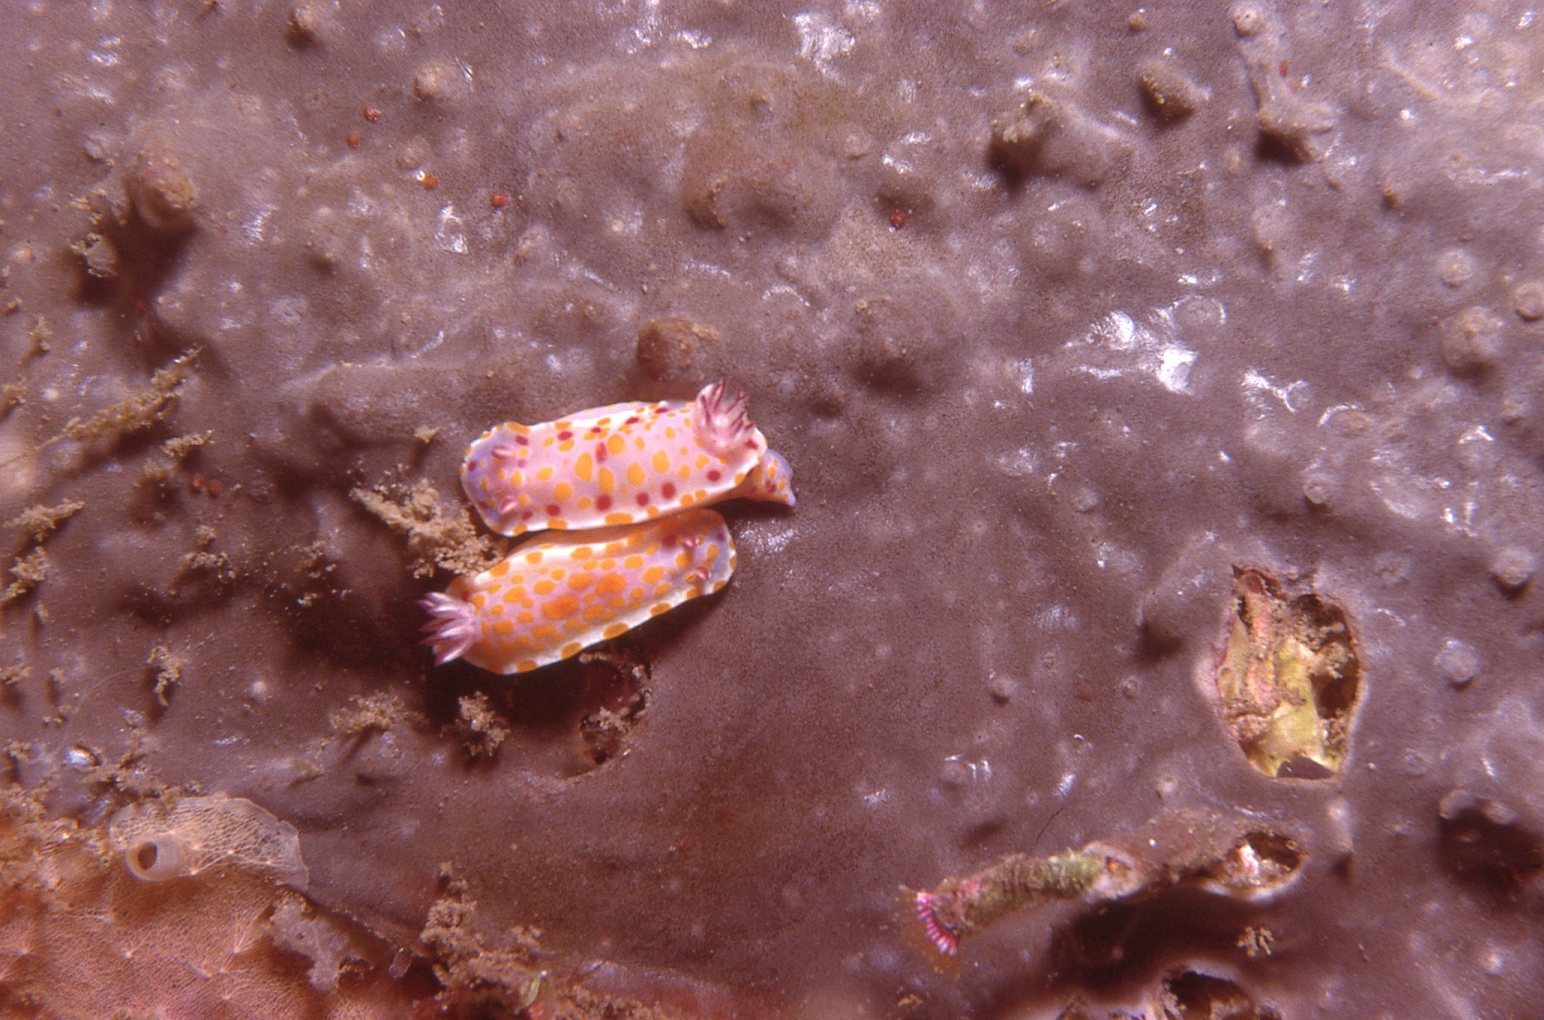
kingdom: Animalia
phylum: Mollusca
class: Gastropoda
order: Nudibranchia
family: Chromodorididae
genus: Ceratosoma
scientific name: Ceratosoma amoenum
